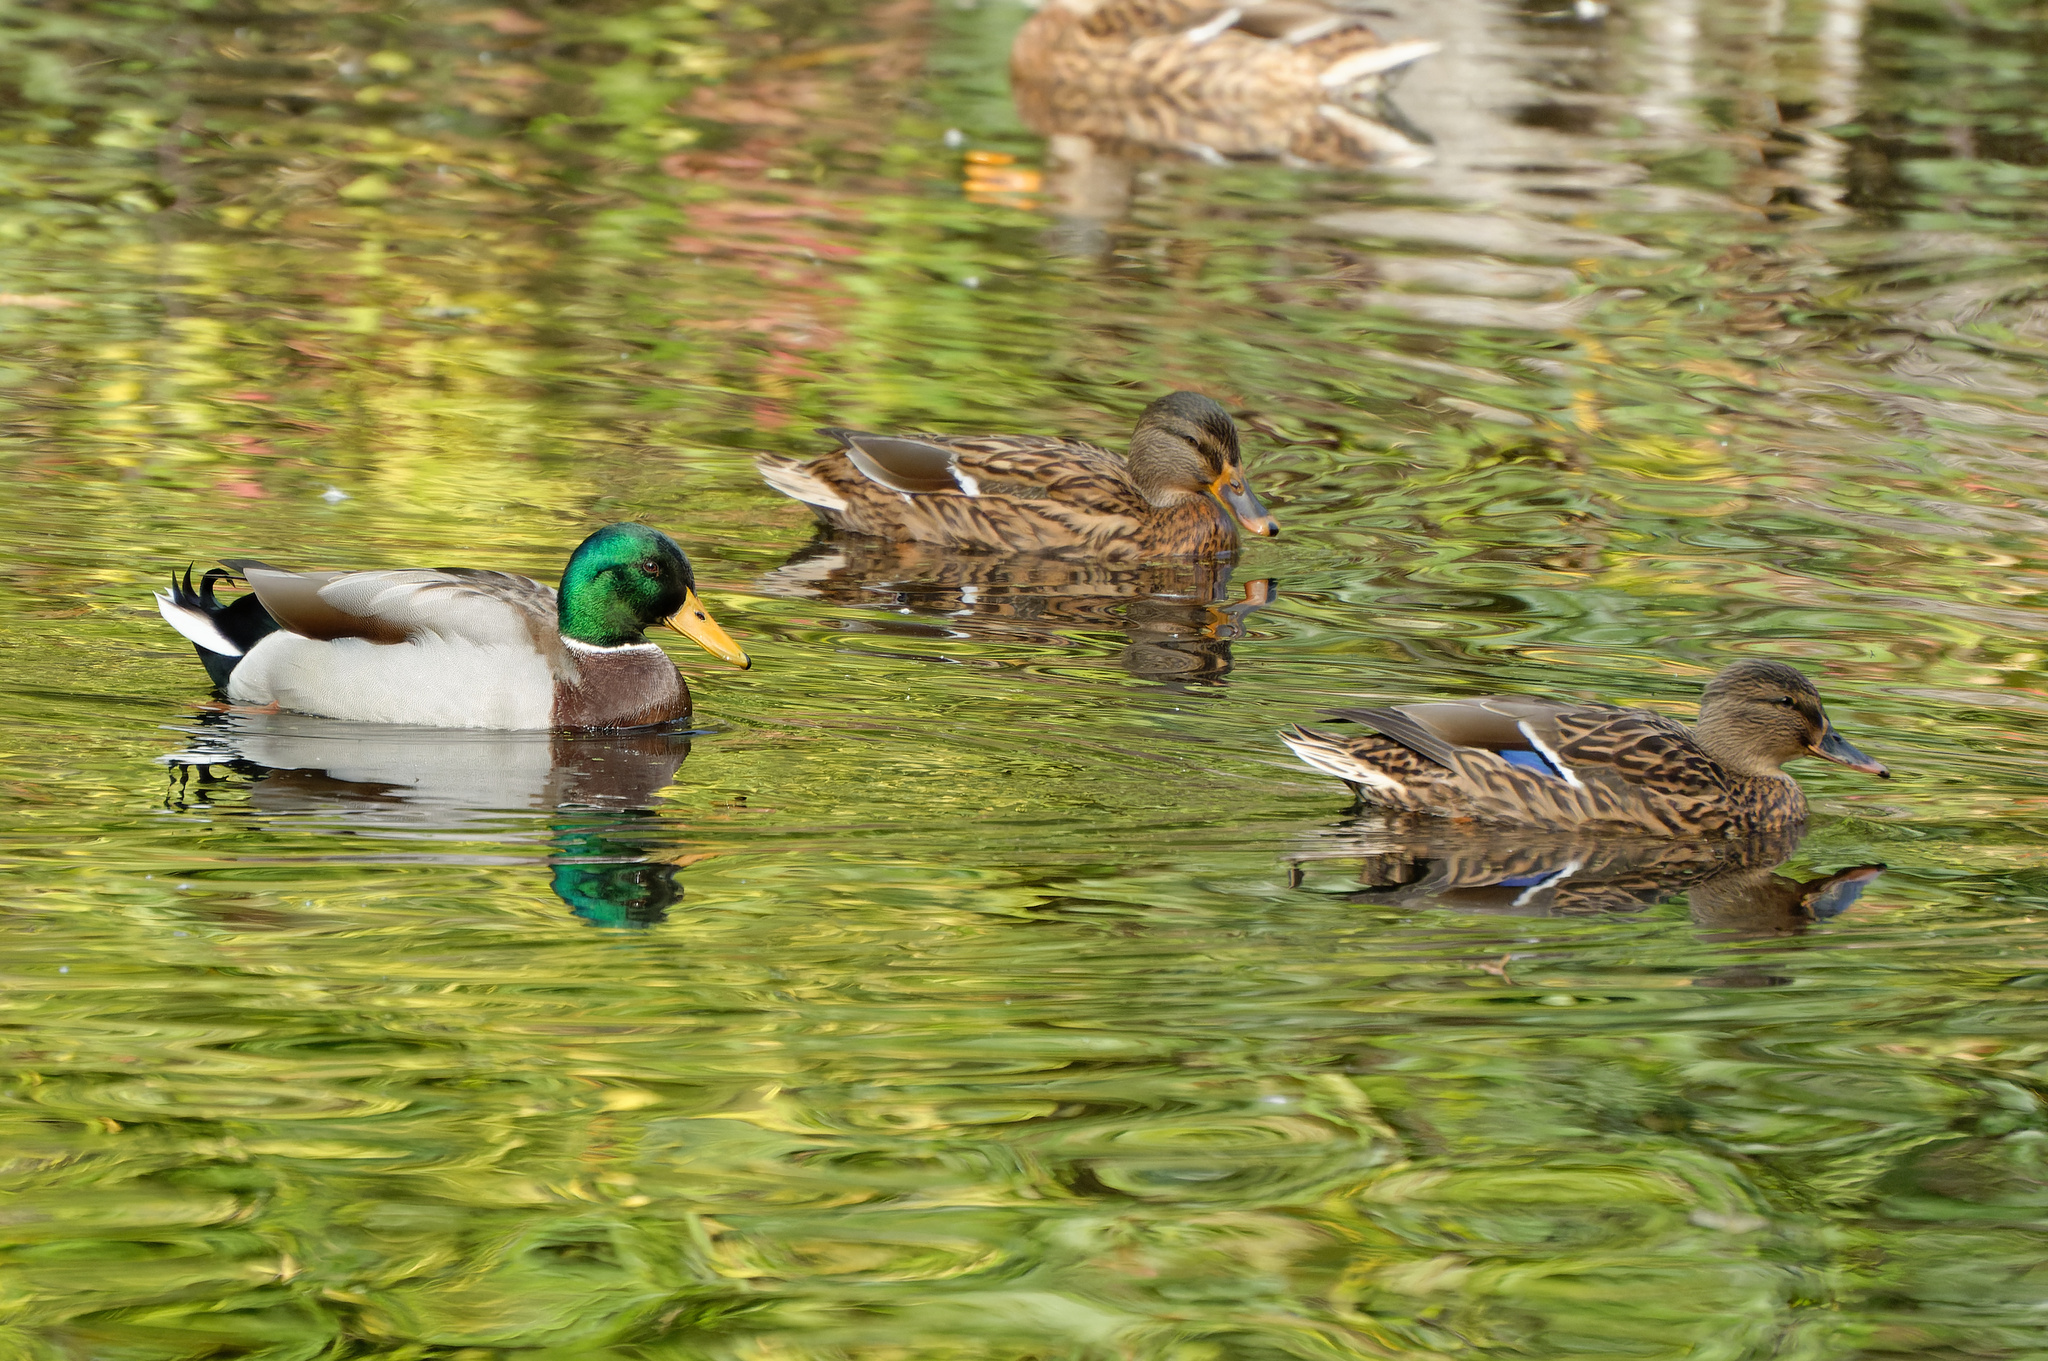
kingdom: Animalia
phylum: Chordata
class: Aves
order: Anseriformes
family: Anatidae
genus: Anas
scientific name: Anas platyrhynchos
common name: Mallard
